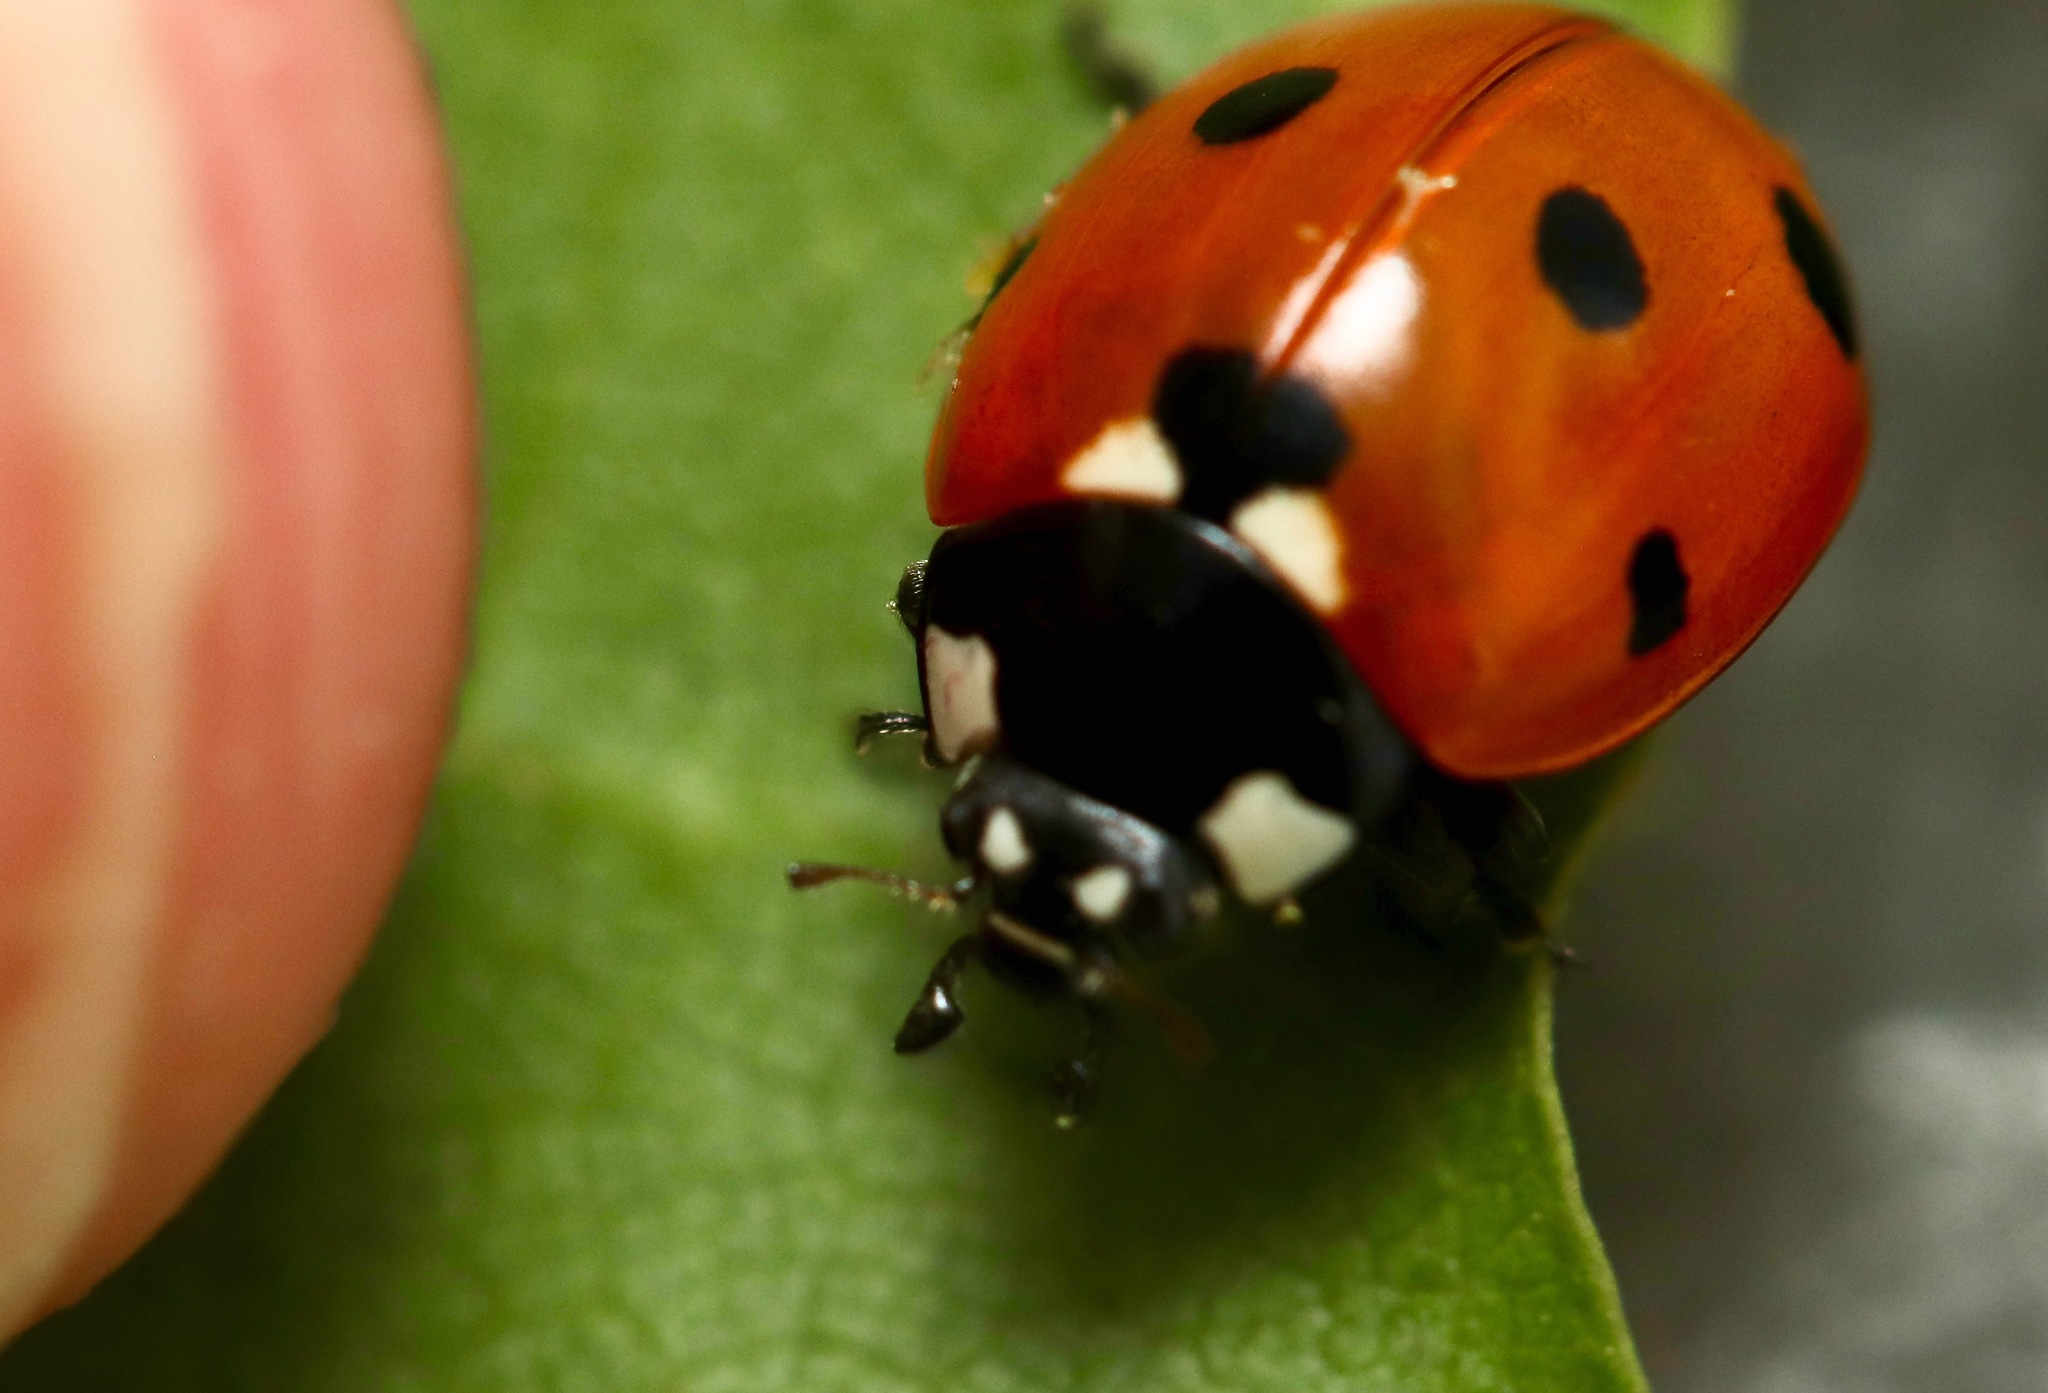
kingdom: Animalia
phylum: Arthropoda
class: Insecta
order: Coleoptera
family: Coccinellidae
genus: Coccinella
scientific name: Coccinella septempunctata
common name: Sevenspotted lady beetle
